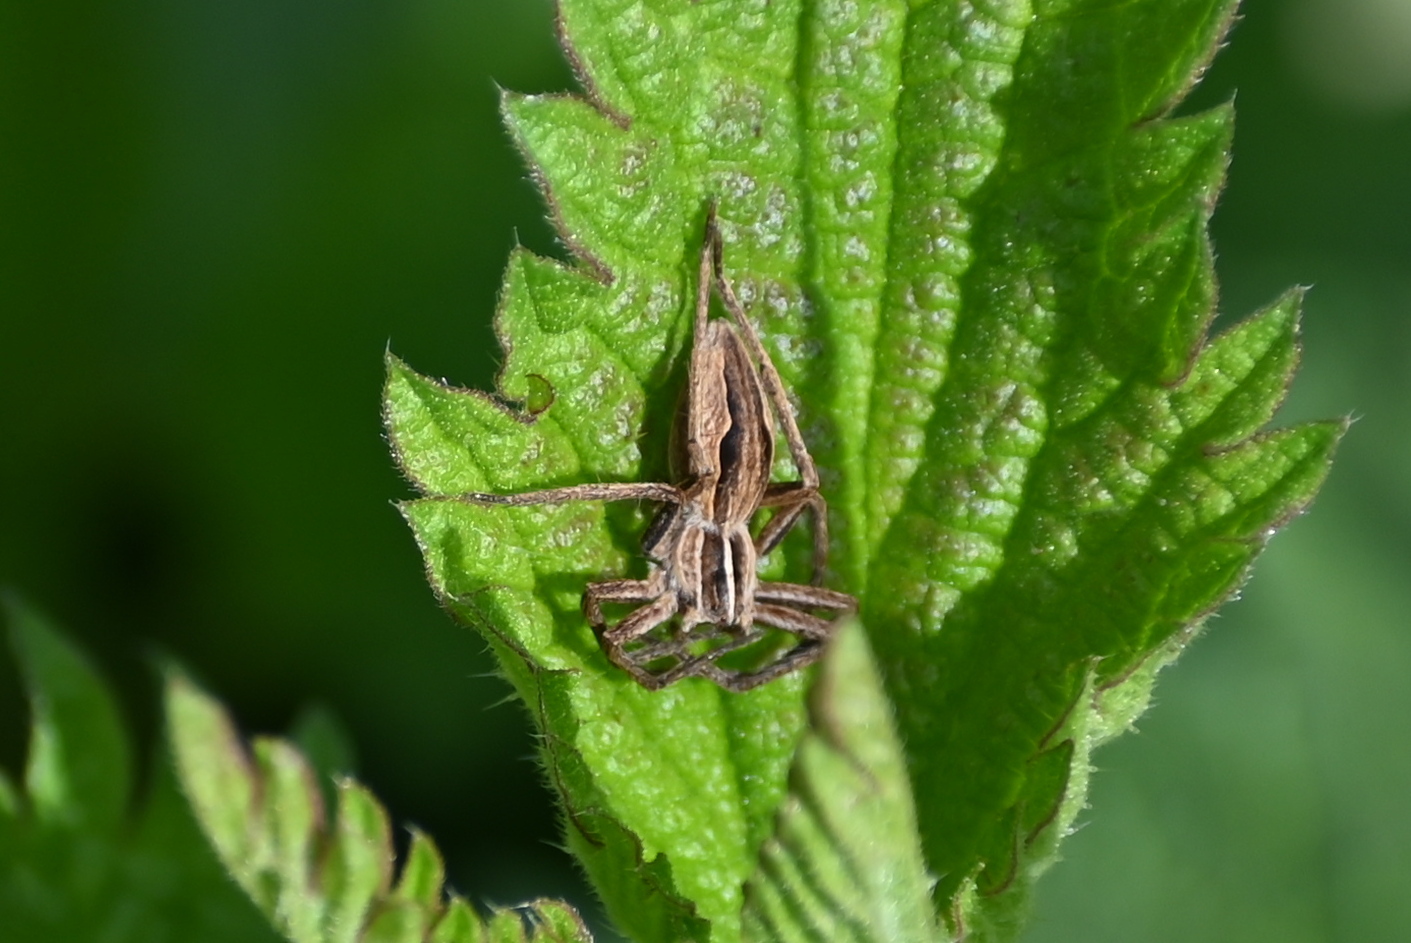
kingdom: Animalia
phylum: Arthropoda
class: Arachnida
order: Araneae
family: Pisauridae
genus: Pisaura
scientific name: Pisaura mirabilis
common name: Tent spider
